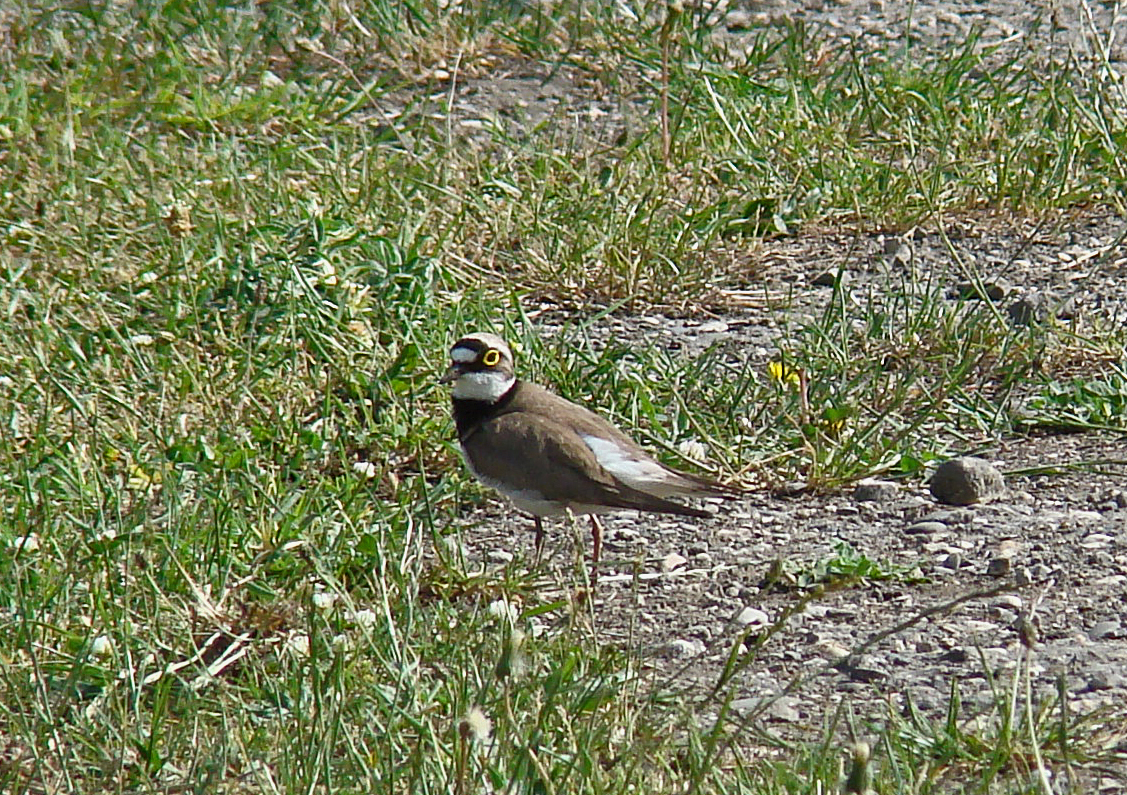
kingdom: Animalia
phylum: Chordata
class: Aves
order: Charadriiformes
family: Charadriidae
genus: Charadrius
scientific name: Charadrius dubius
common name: Little ringed plover
